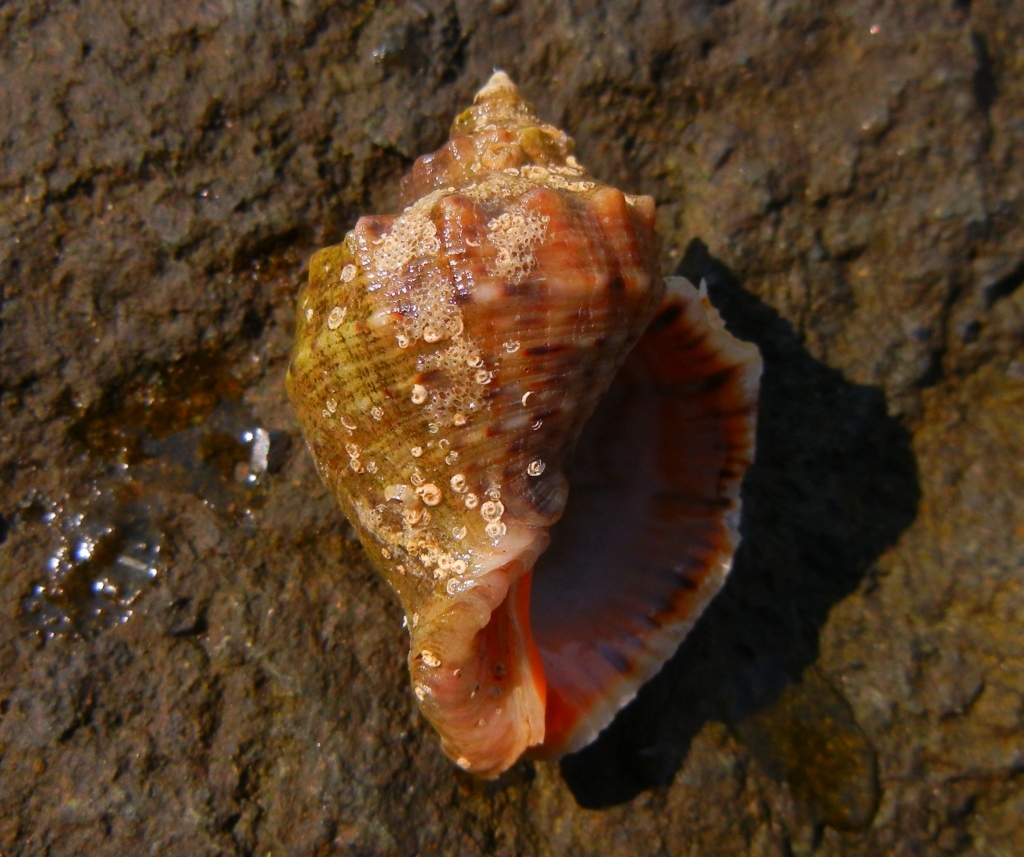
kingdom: Animalia
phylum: Mollusca
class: Gastropoda
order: Neogastropoda
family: Muricidae
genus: Rapana
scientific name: Rapana venosa
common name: Veined rapa whelk
